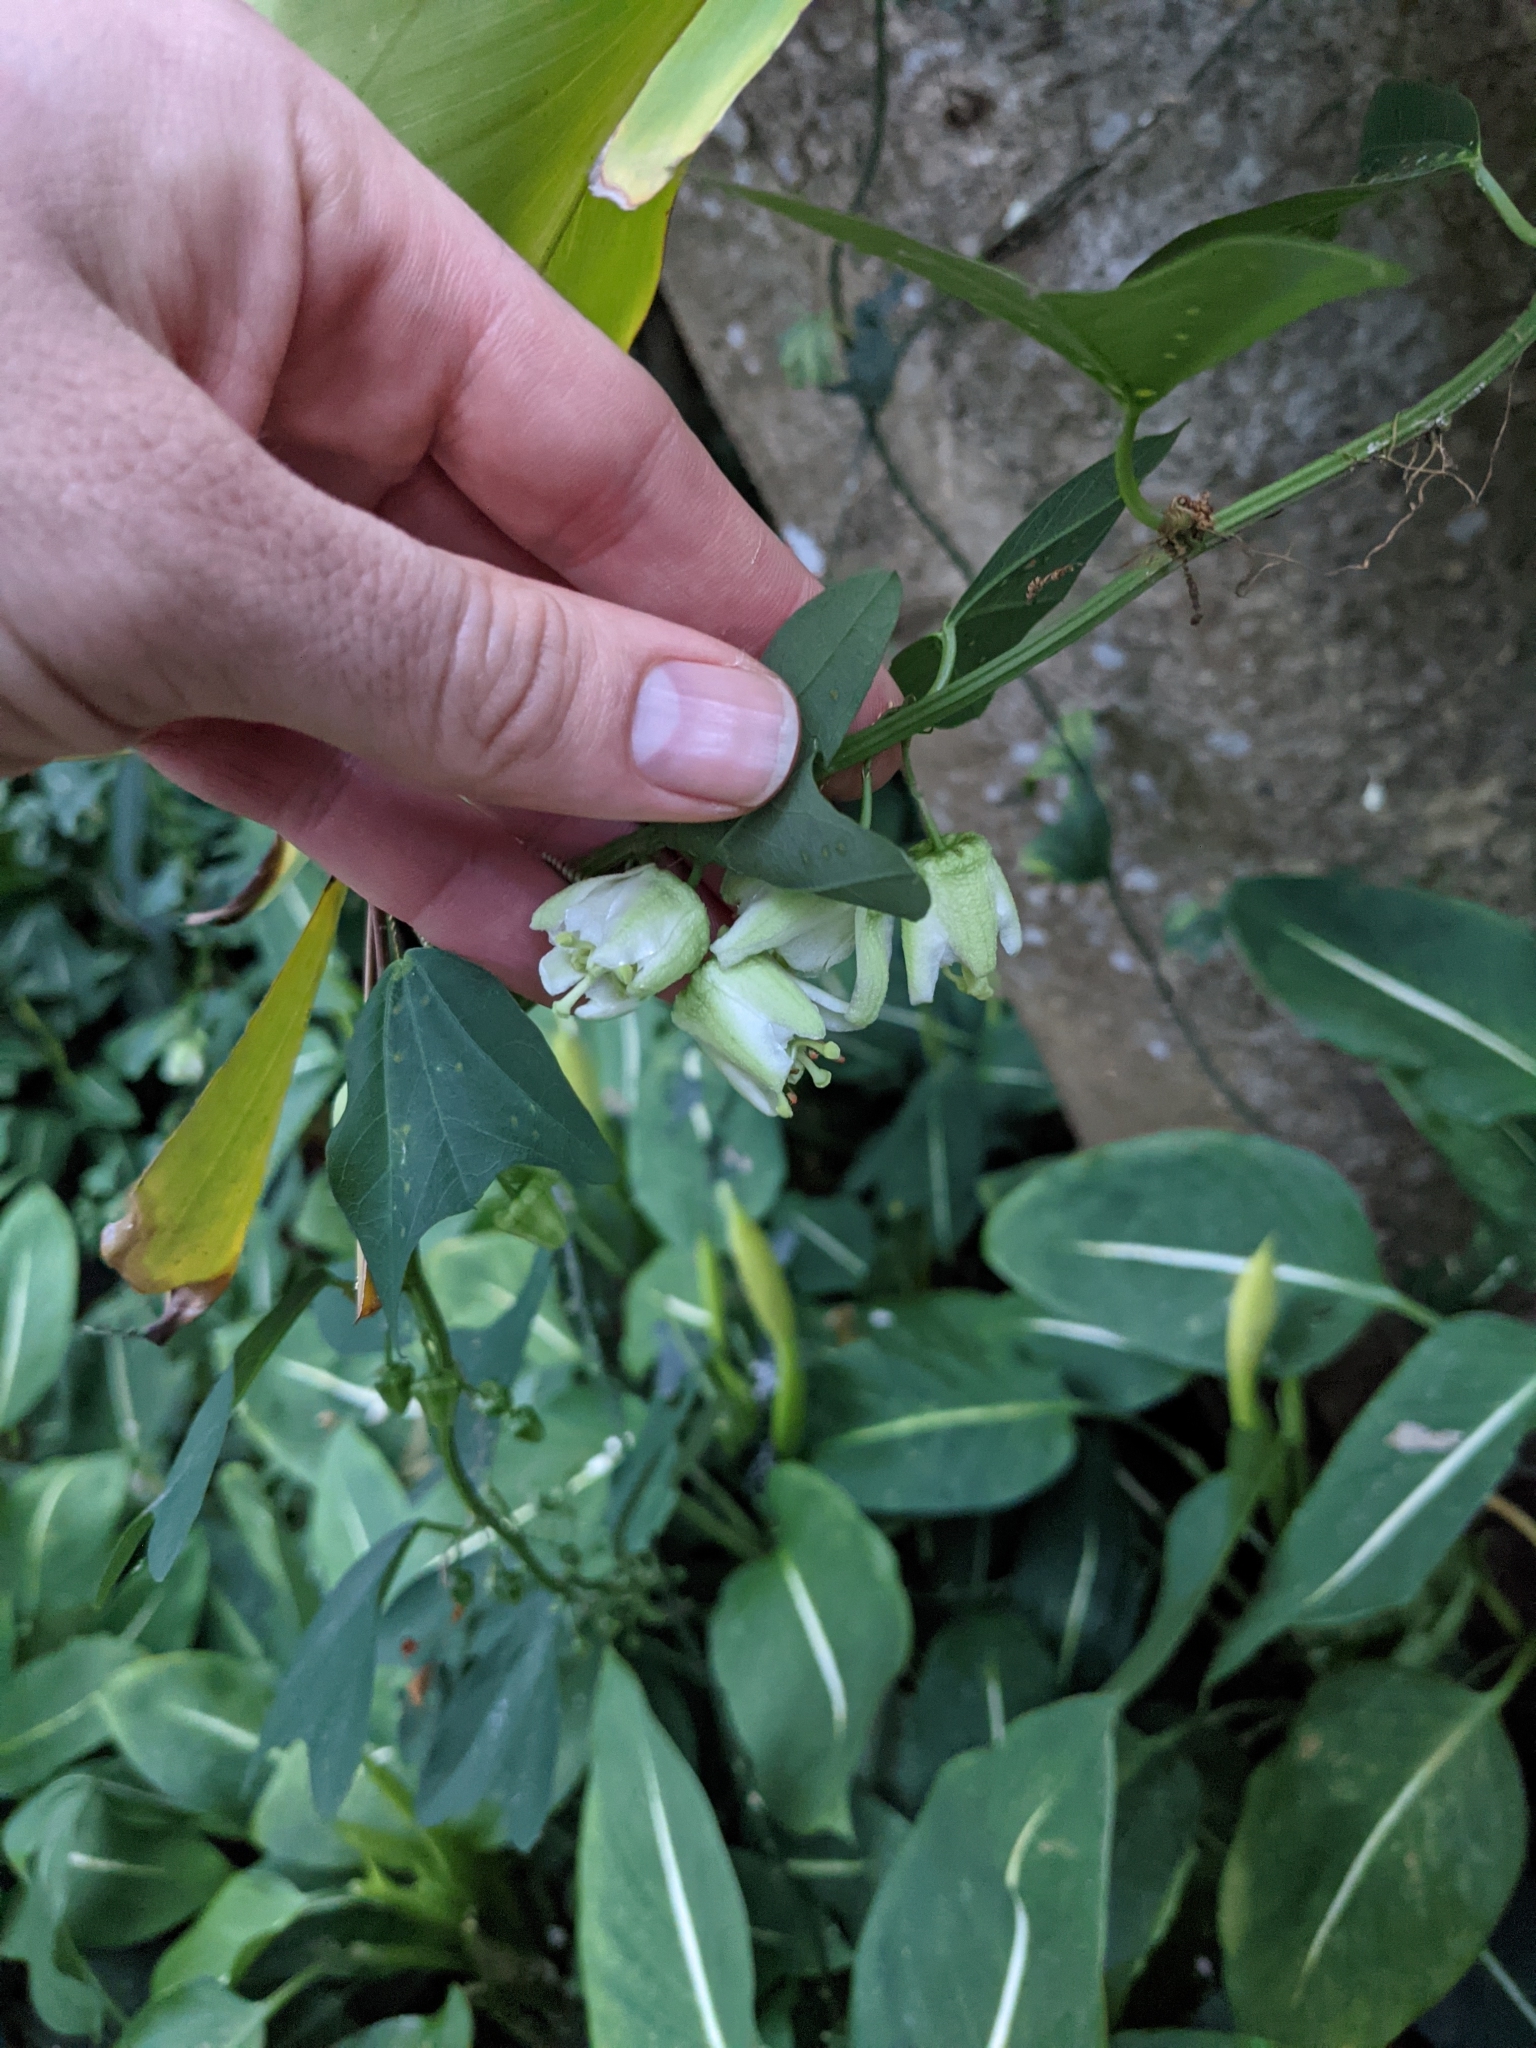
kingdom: Plantae
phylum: Tracheophyta
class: Magnoliopsida
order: Malpighiales
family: Passifloraceae
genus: Passiflora
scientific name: Passiflora biflora
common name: Twoflower passionflower
